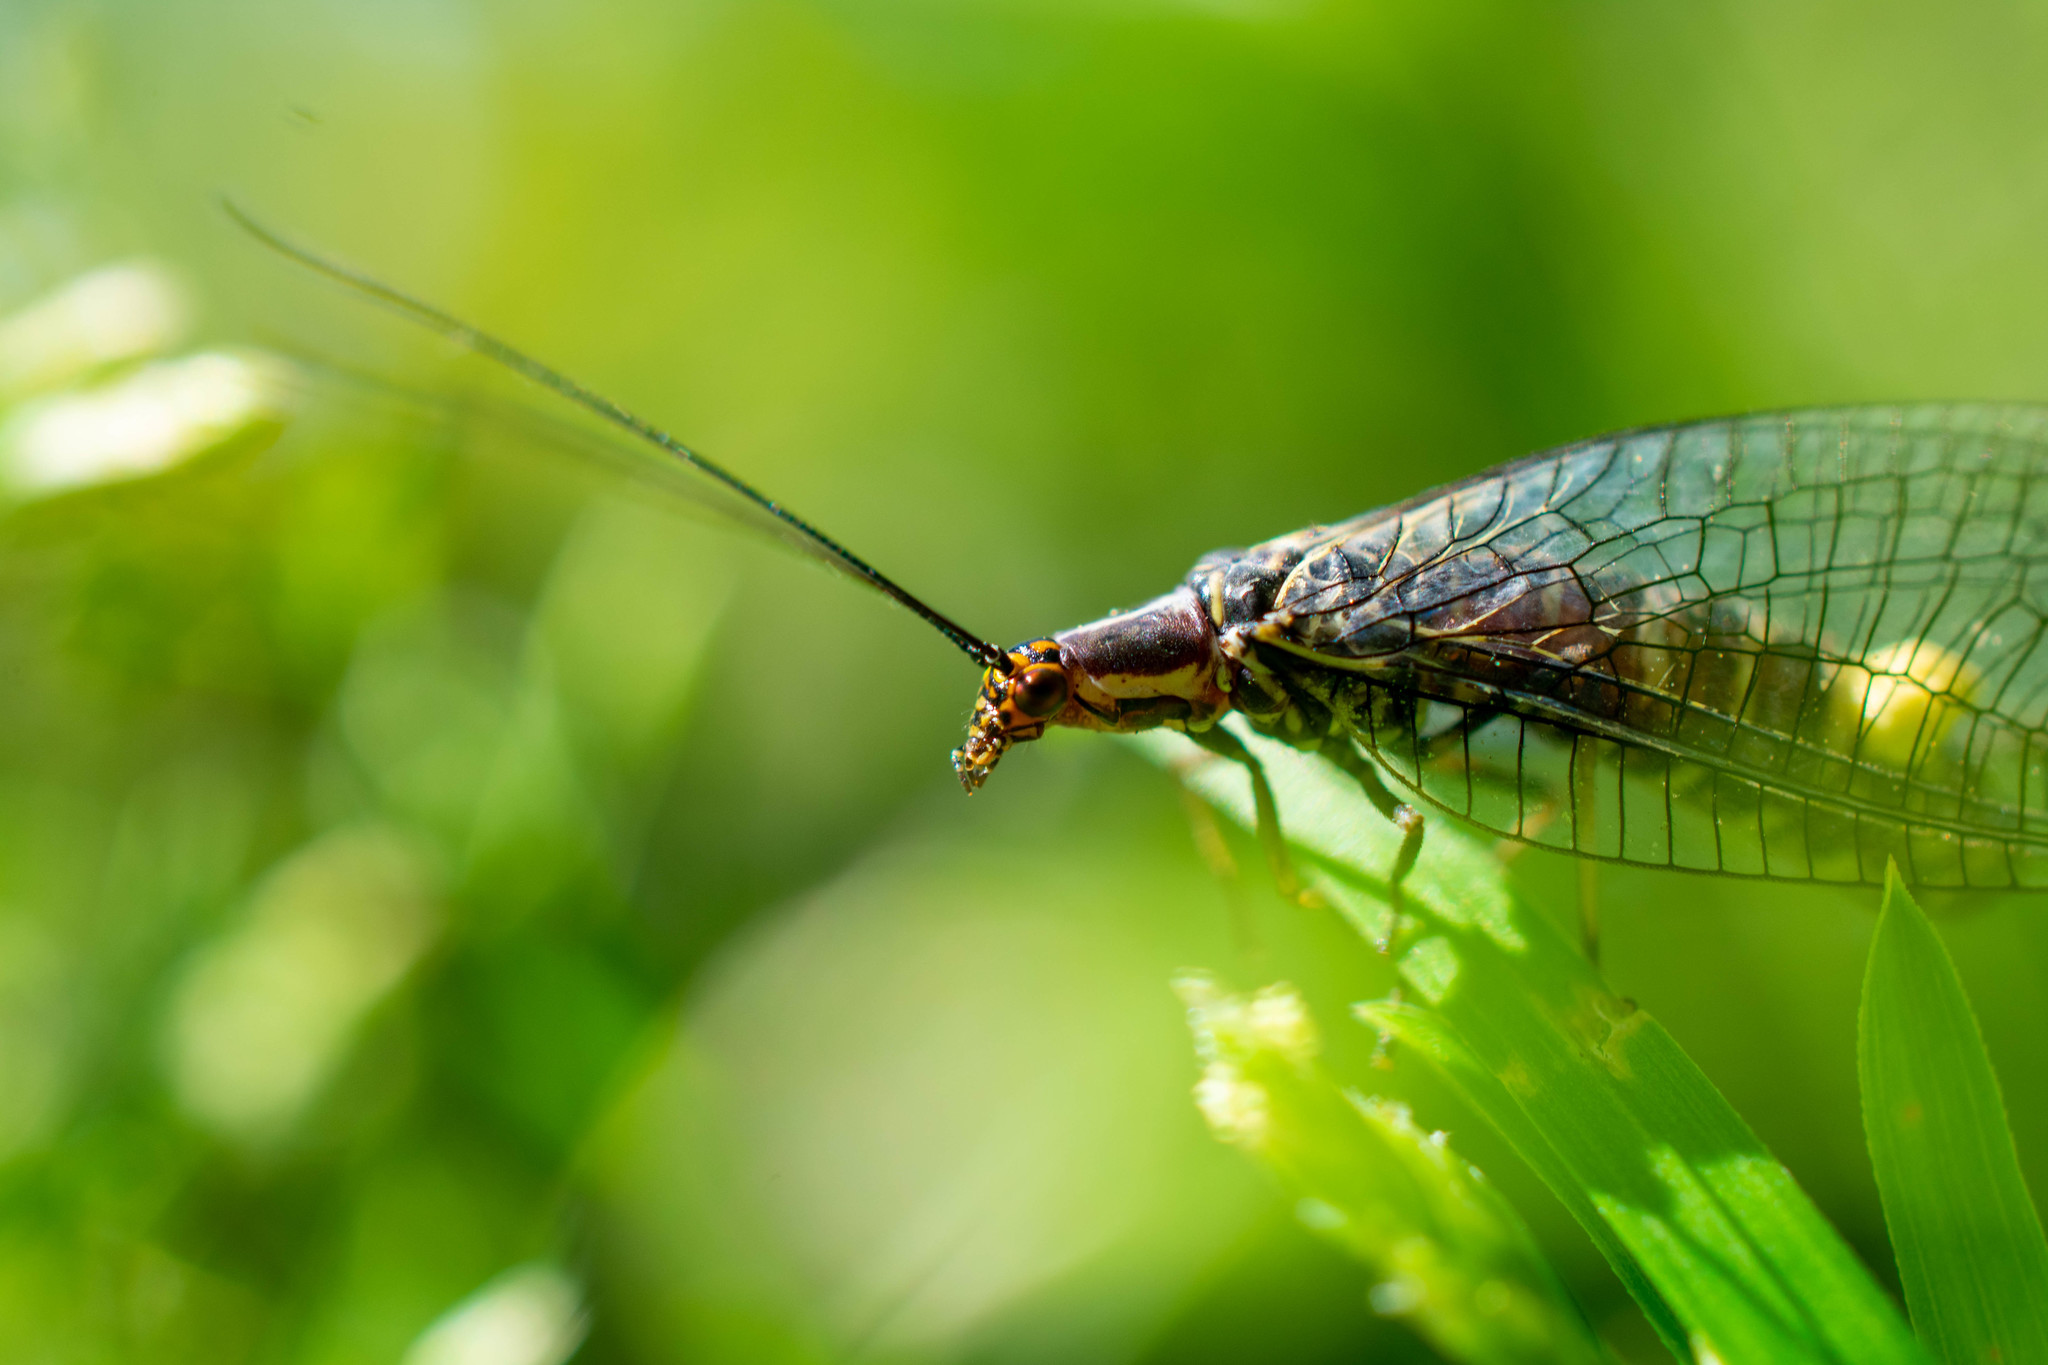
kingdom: Animalia
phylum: Arthropoda
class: Insecta
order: Neuroptera
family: Chrysopidae
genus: Nothochrysa
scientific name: Nothochrysa californica
